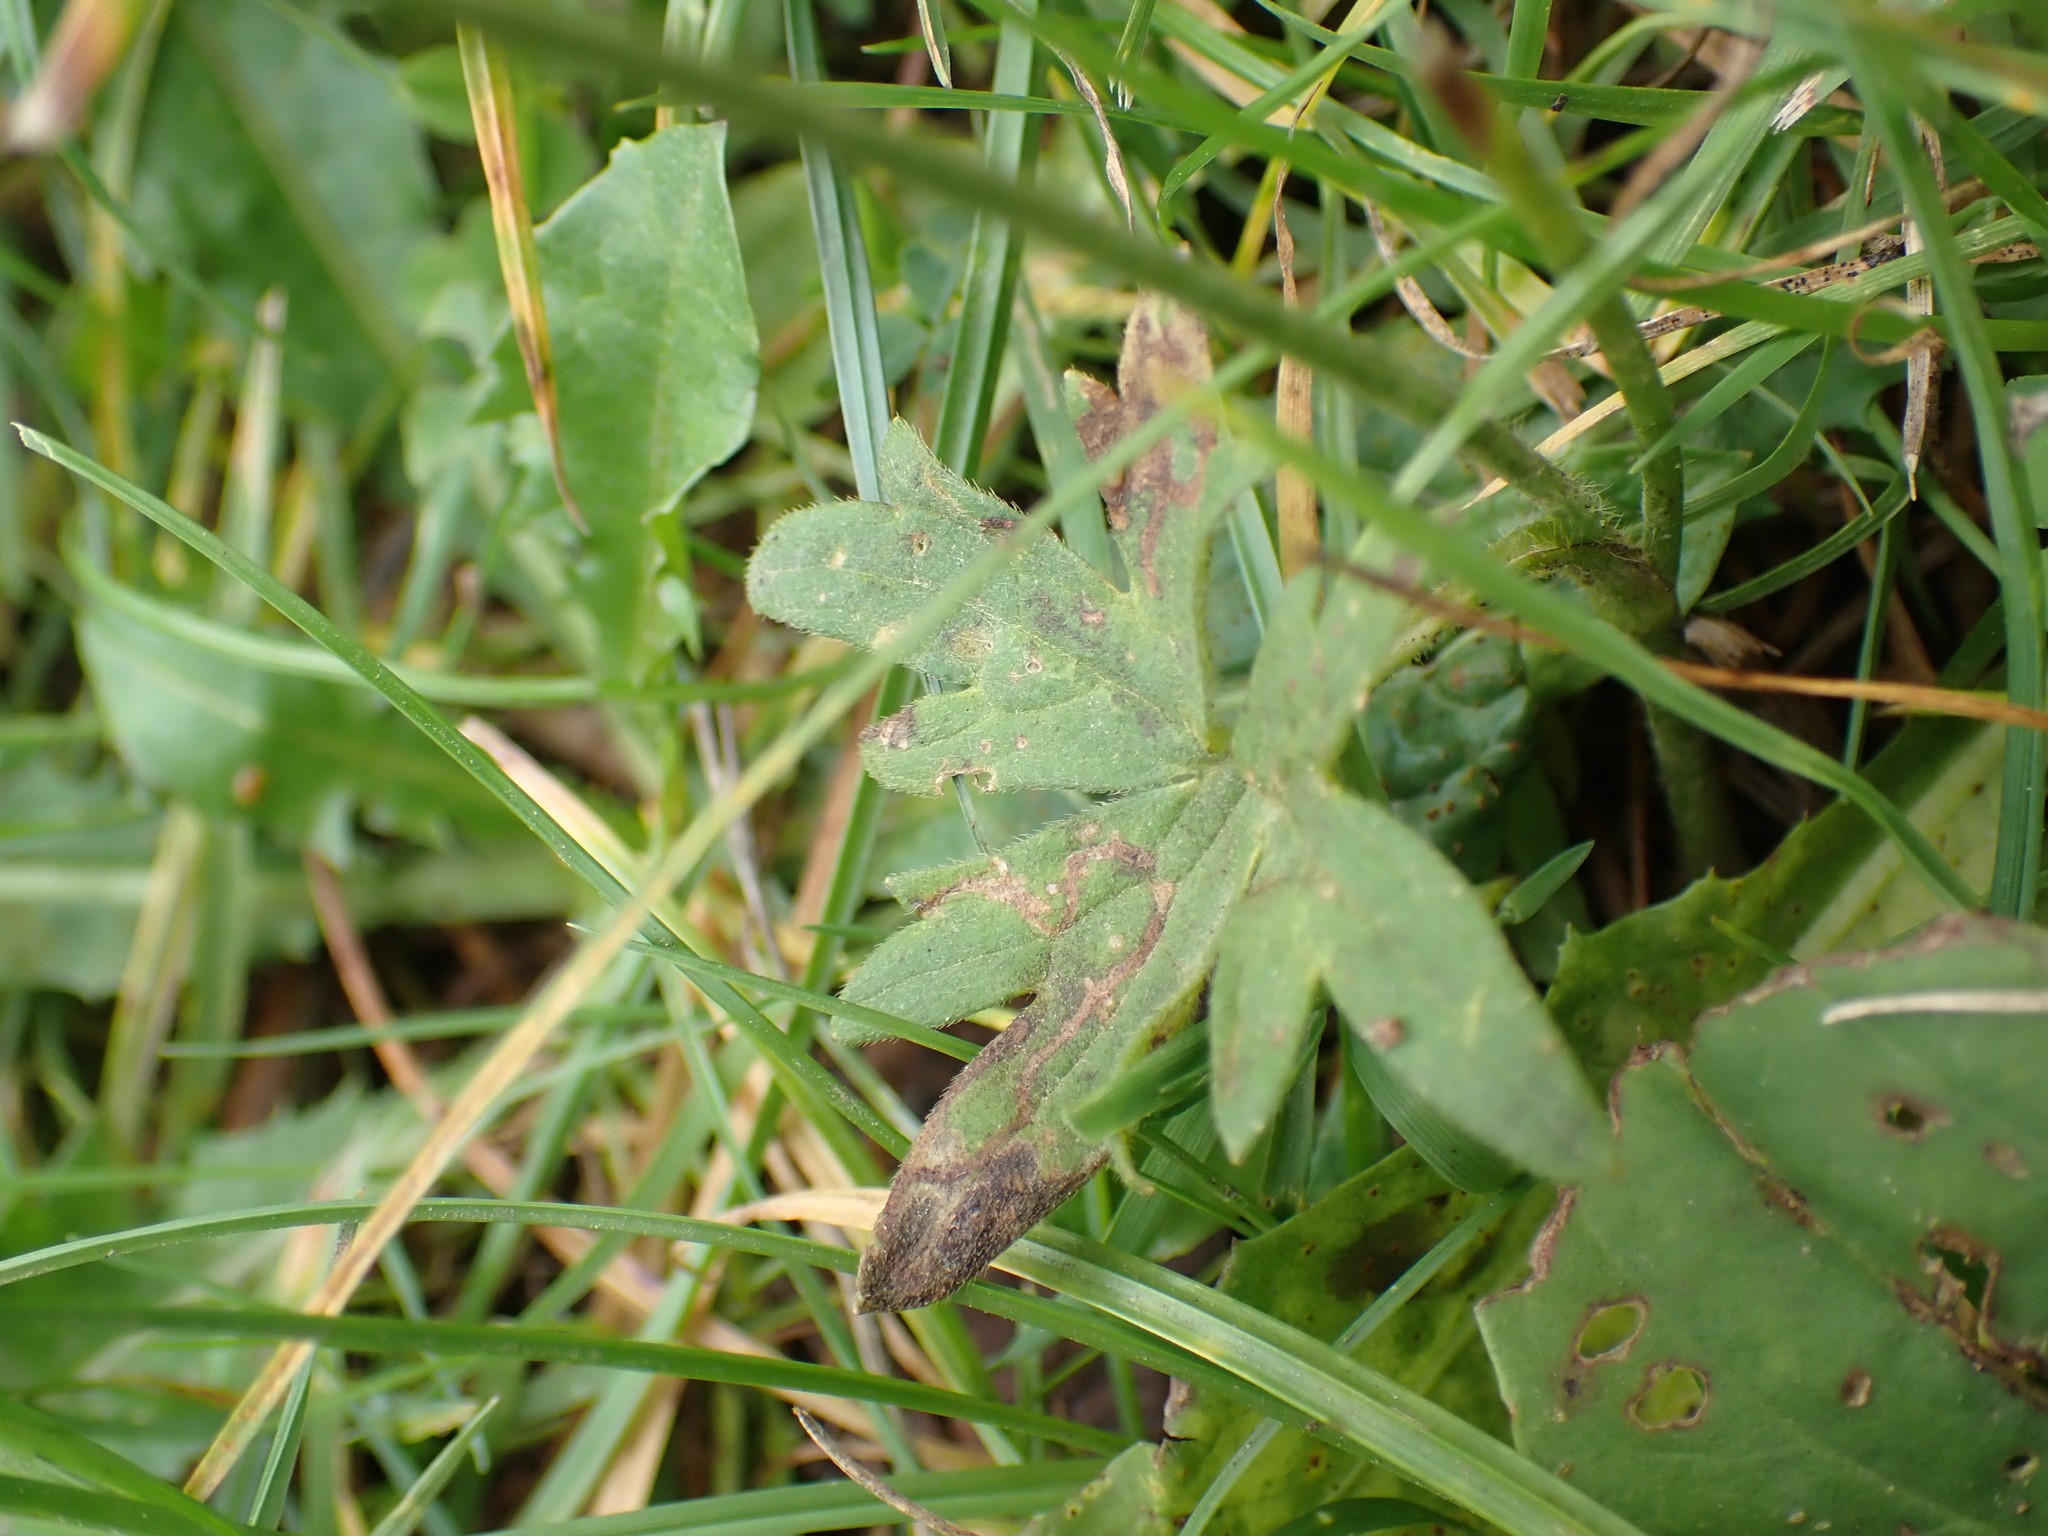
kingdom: Plantae
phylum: Tracheophyta
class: Magnoliopsida
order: Ranunculales
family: Ranunculaceae
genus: Ranunculus
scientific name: Ranunculus acris
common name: Meadow buttercup
